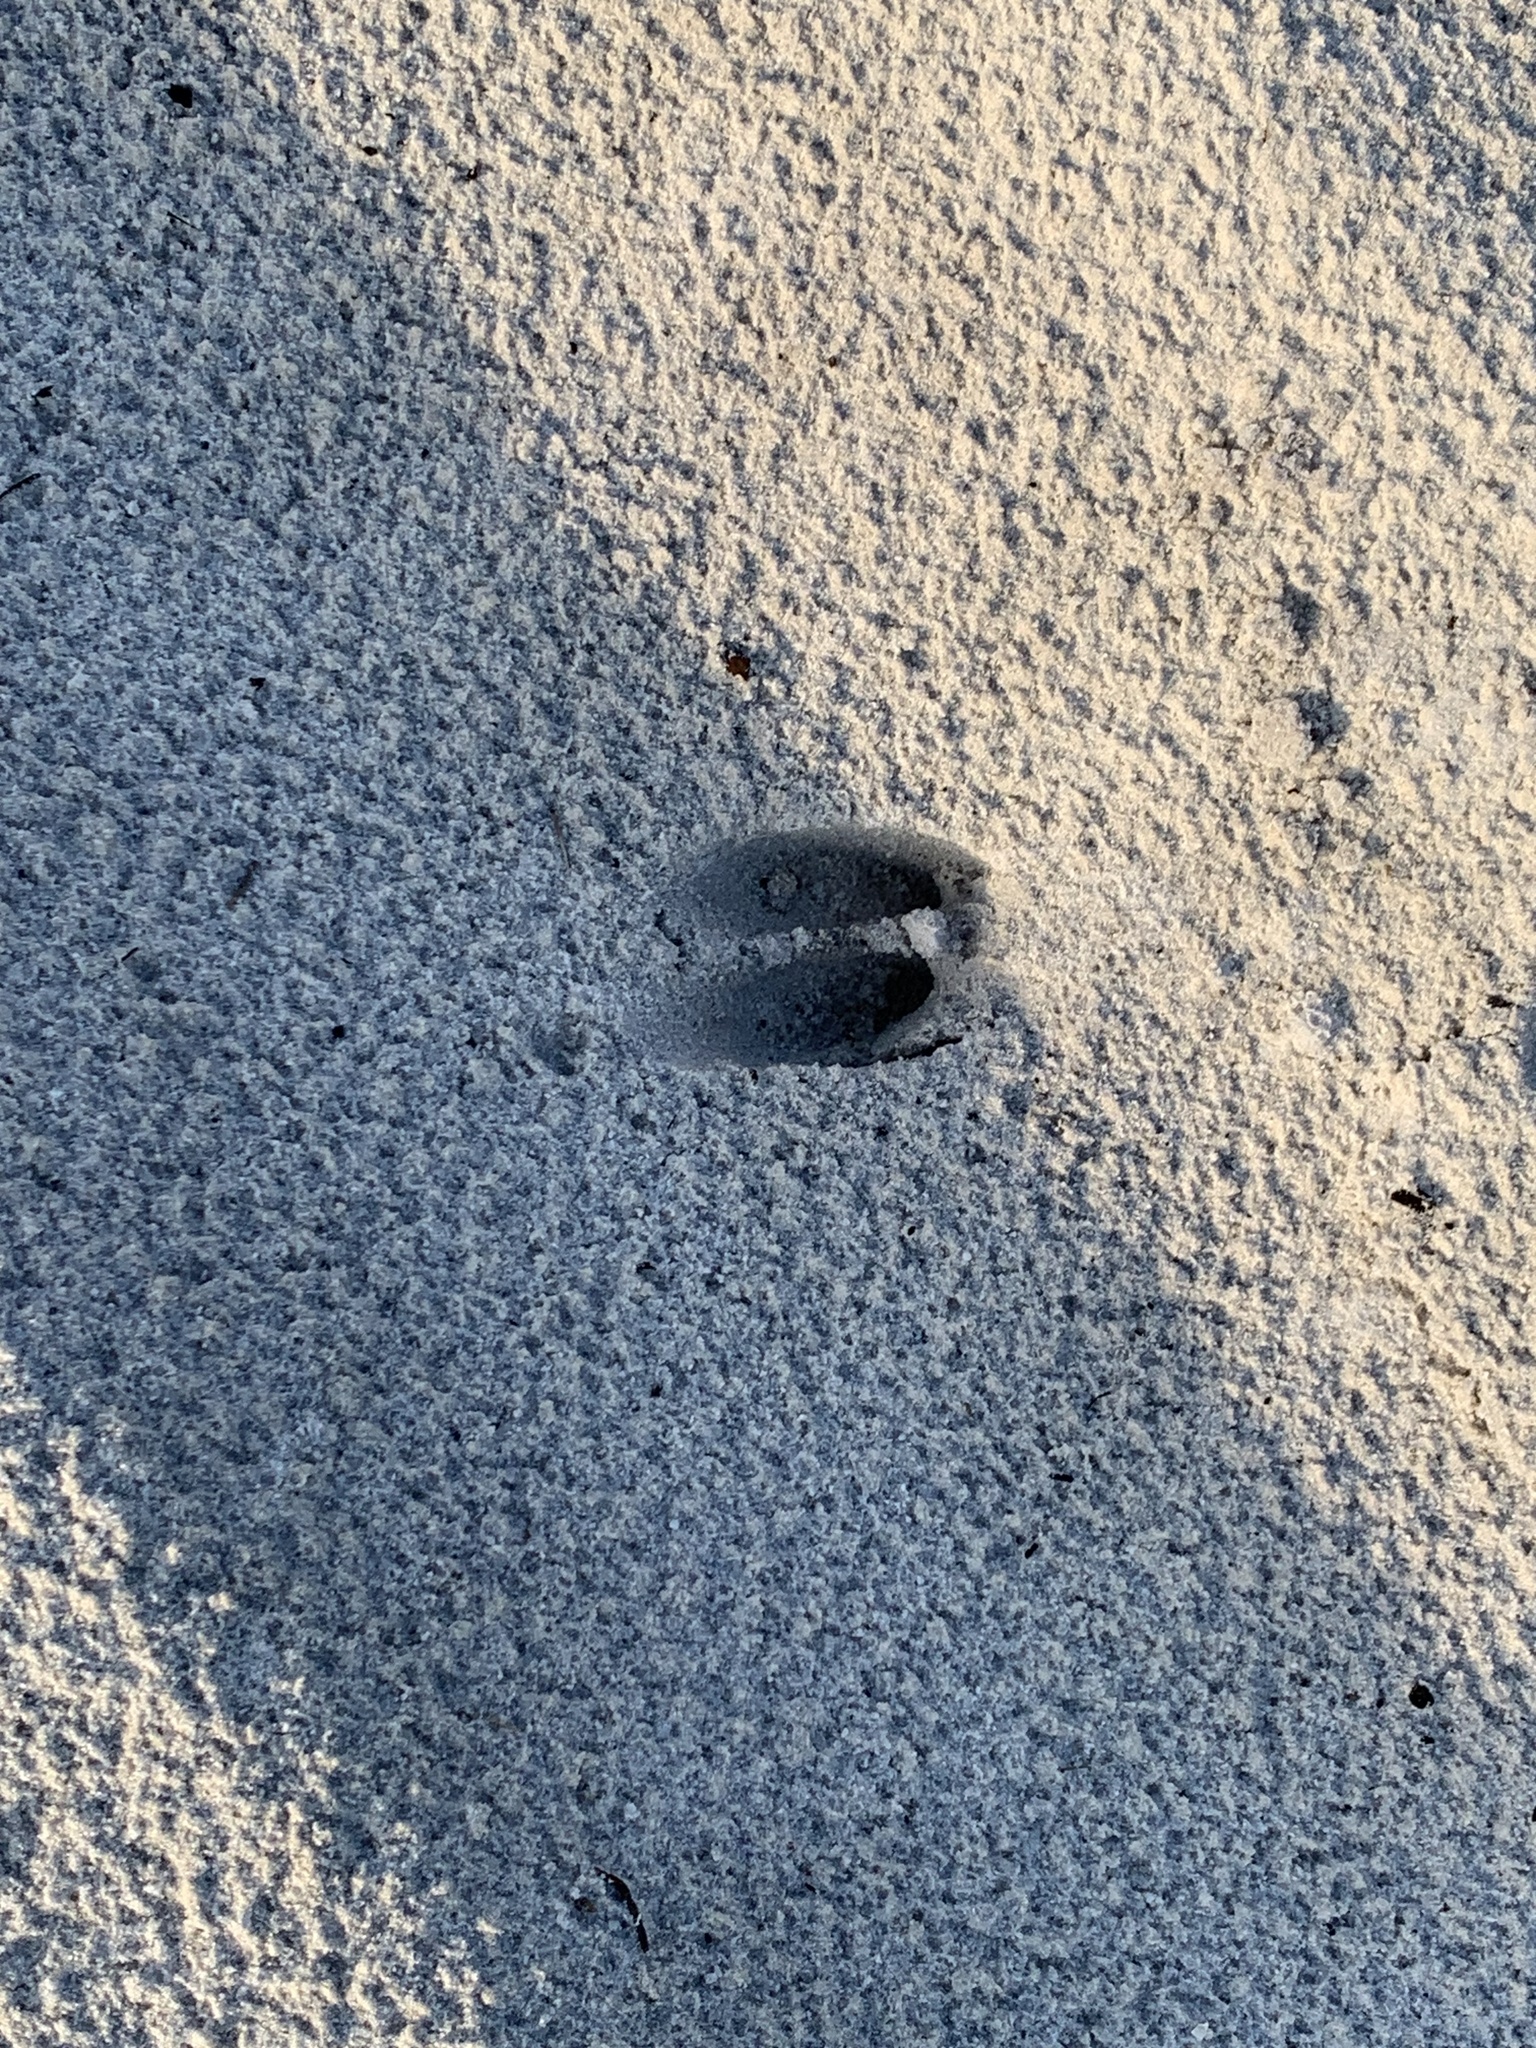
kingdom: Animalia
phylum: Chordata
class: Mammalia
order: Artiodactyla
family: Cervidae
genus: Odocoileus
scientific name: Odocoileus virginianus
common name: White-tailed deer
